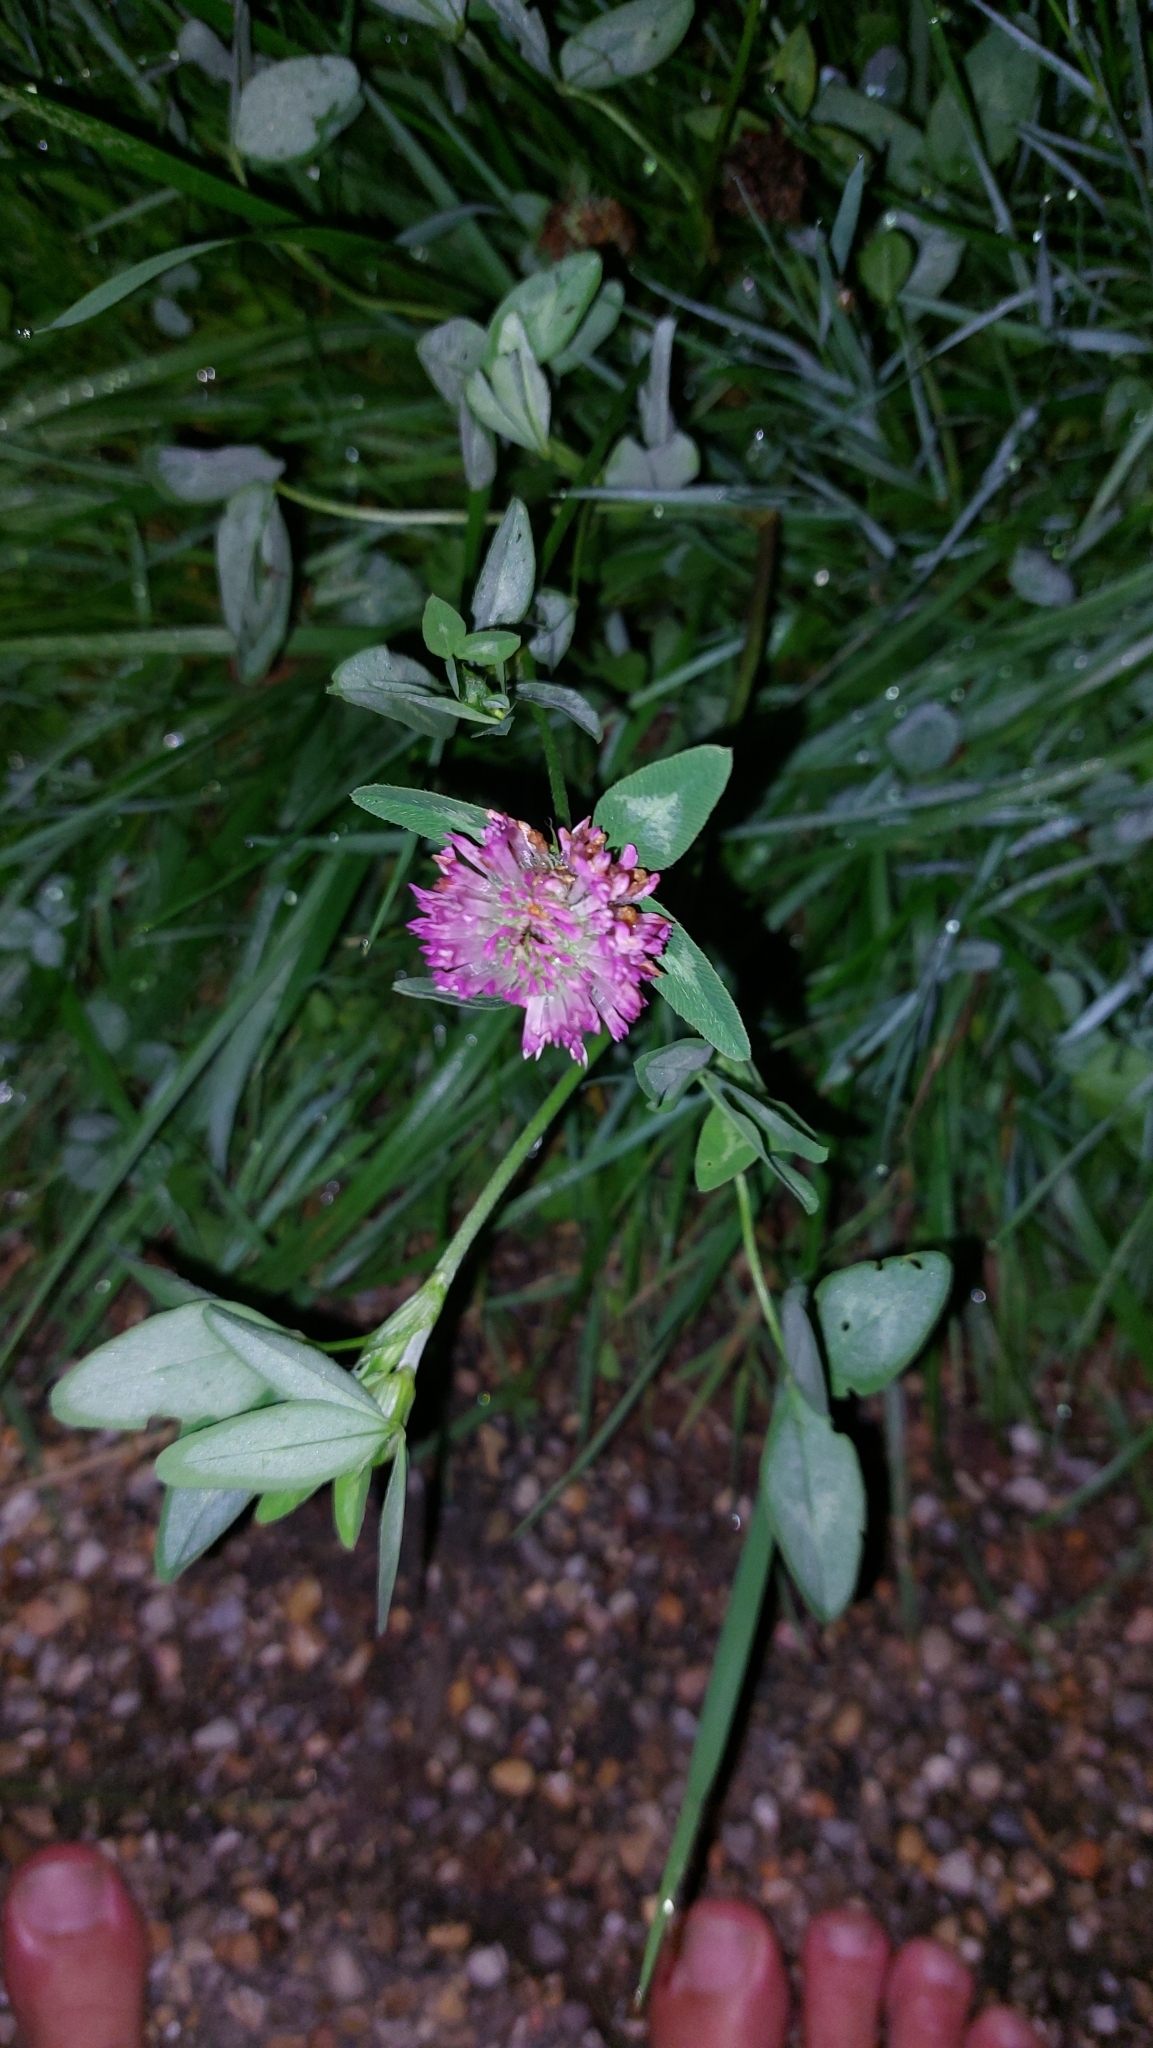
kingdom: Plantae
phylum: Tracheophyta
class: Magnoliopsida
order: Fabales
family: Fabaceae
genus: Trifolium
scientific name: Trifolium pratense
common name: Red clover
